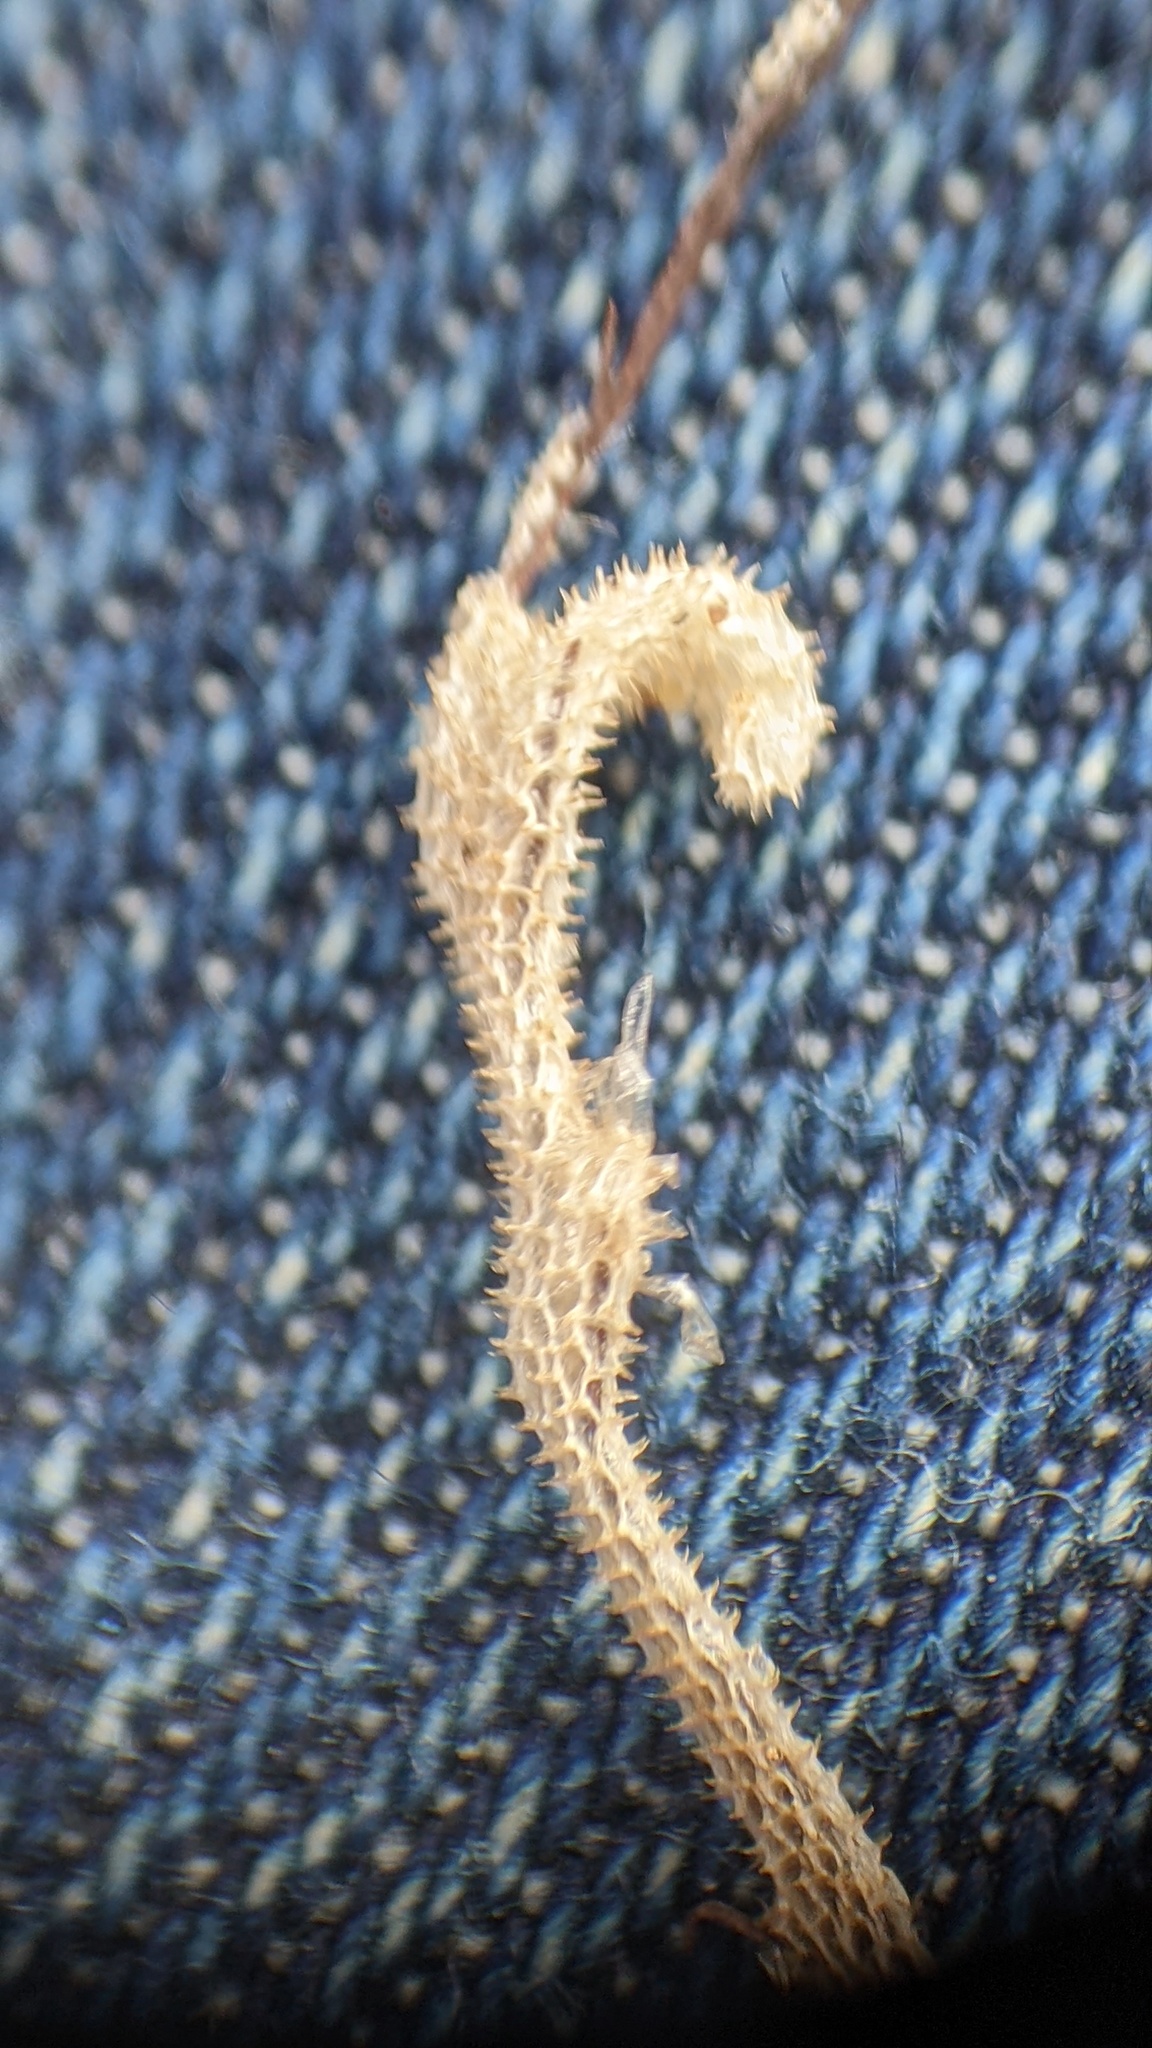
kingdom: Animalia
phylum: Bryozoa
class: Gymnolaemata
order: Cheilostomatida
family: Membraniporidae
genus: Membranipora
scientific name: Membranipora membranacea
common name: Sea mat
